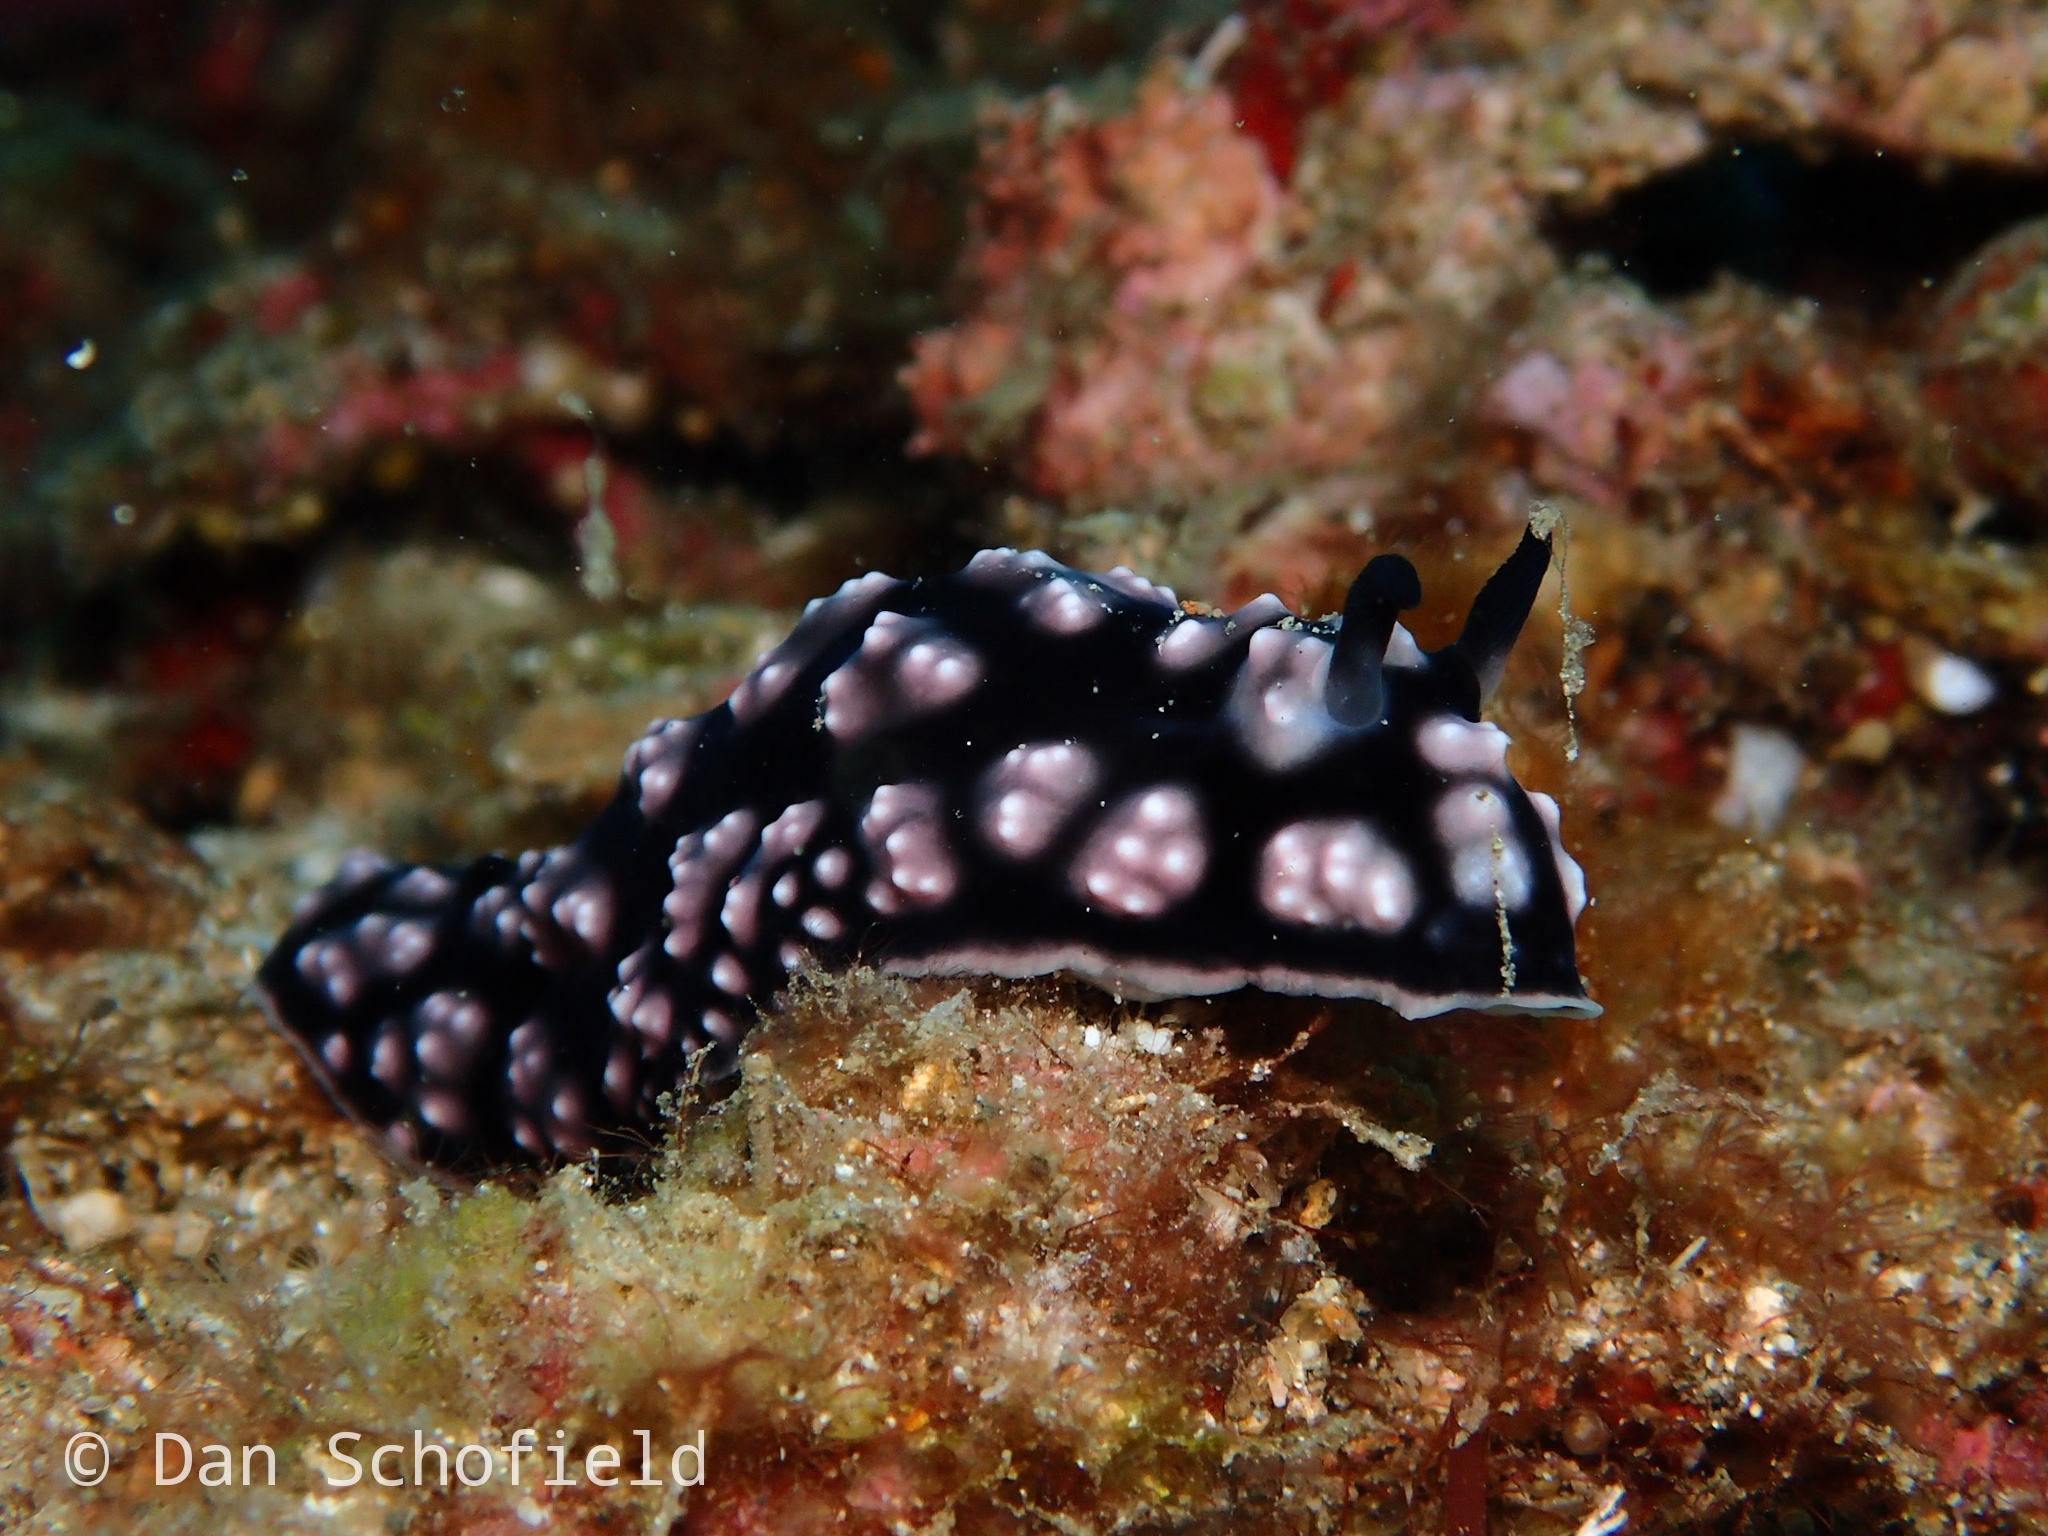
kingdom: Animalia
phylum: Mollusca
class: Gastropoda
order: Nudibranchia
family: Phyllidiidae
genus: Phyllidiella
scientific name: Phyllidiella pustulosa
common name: Pustular phyllidia
